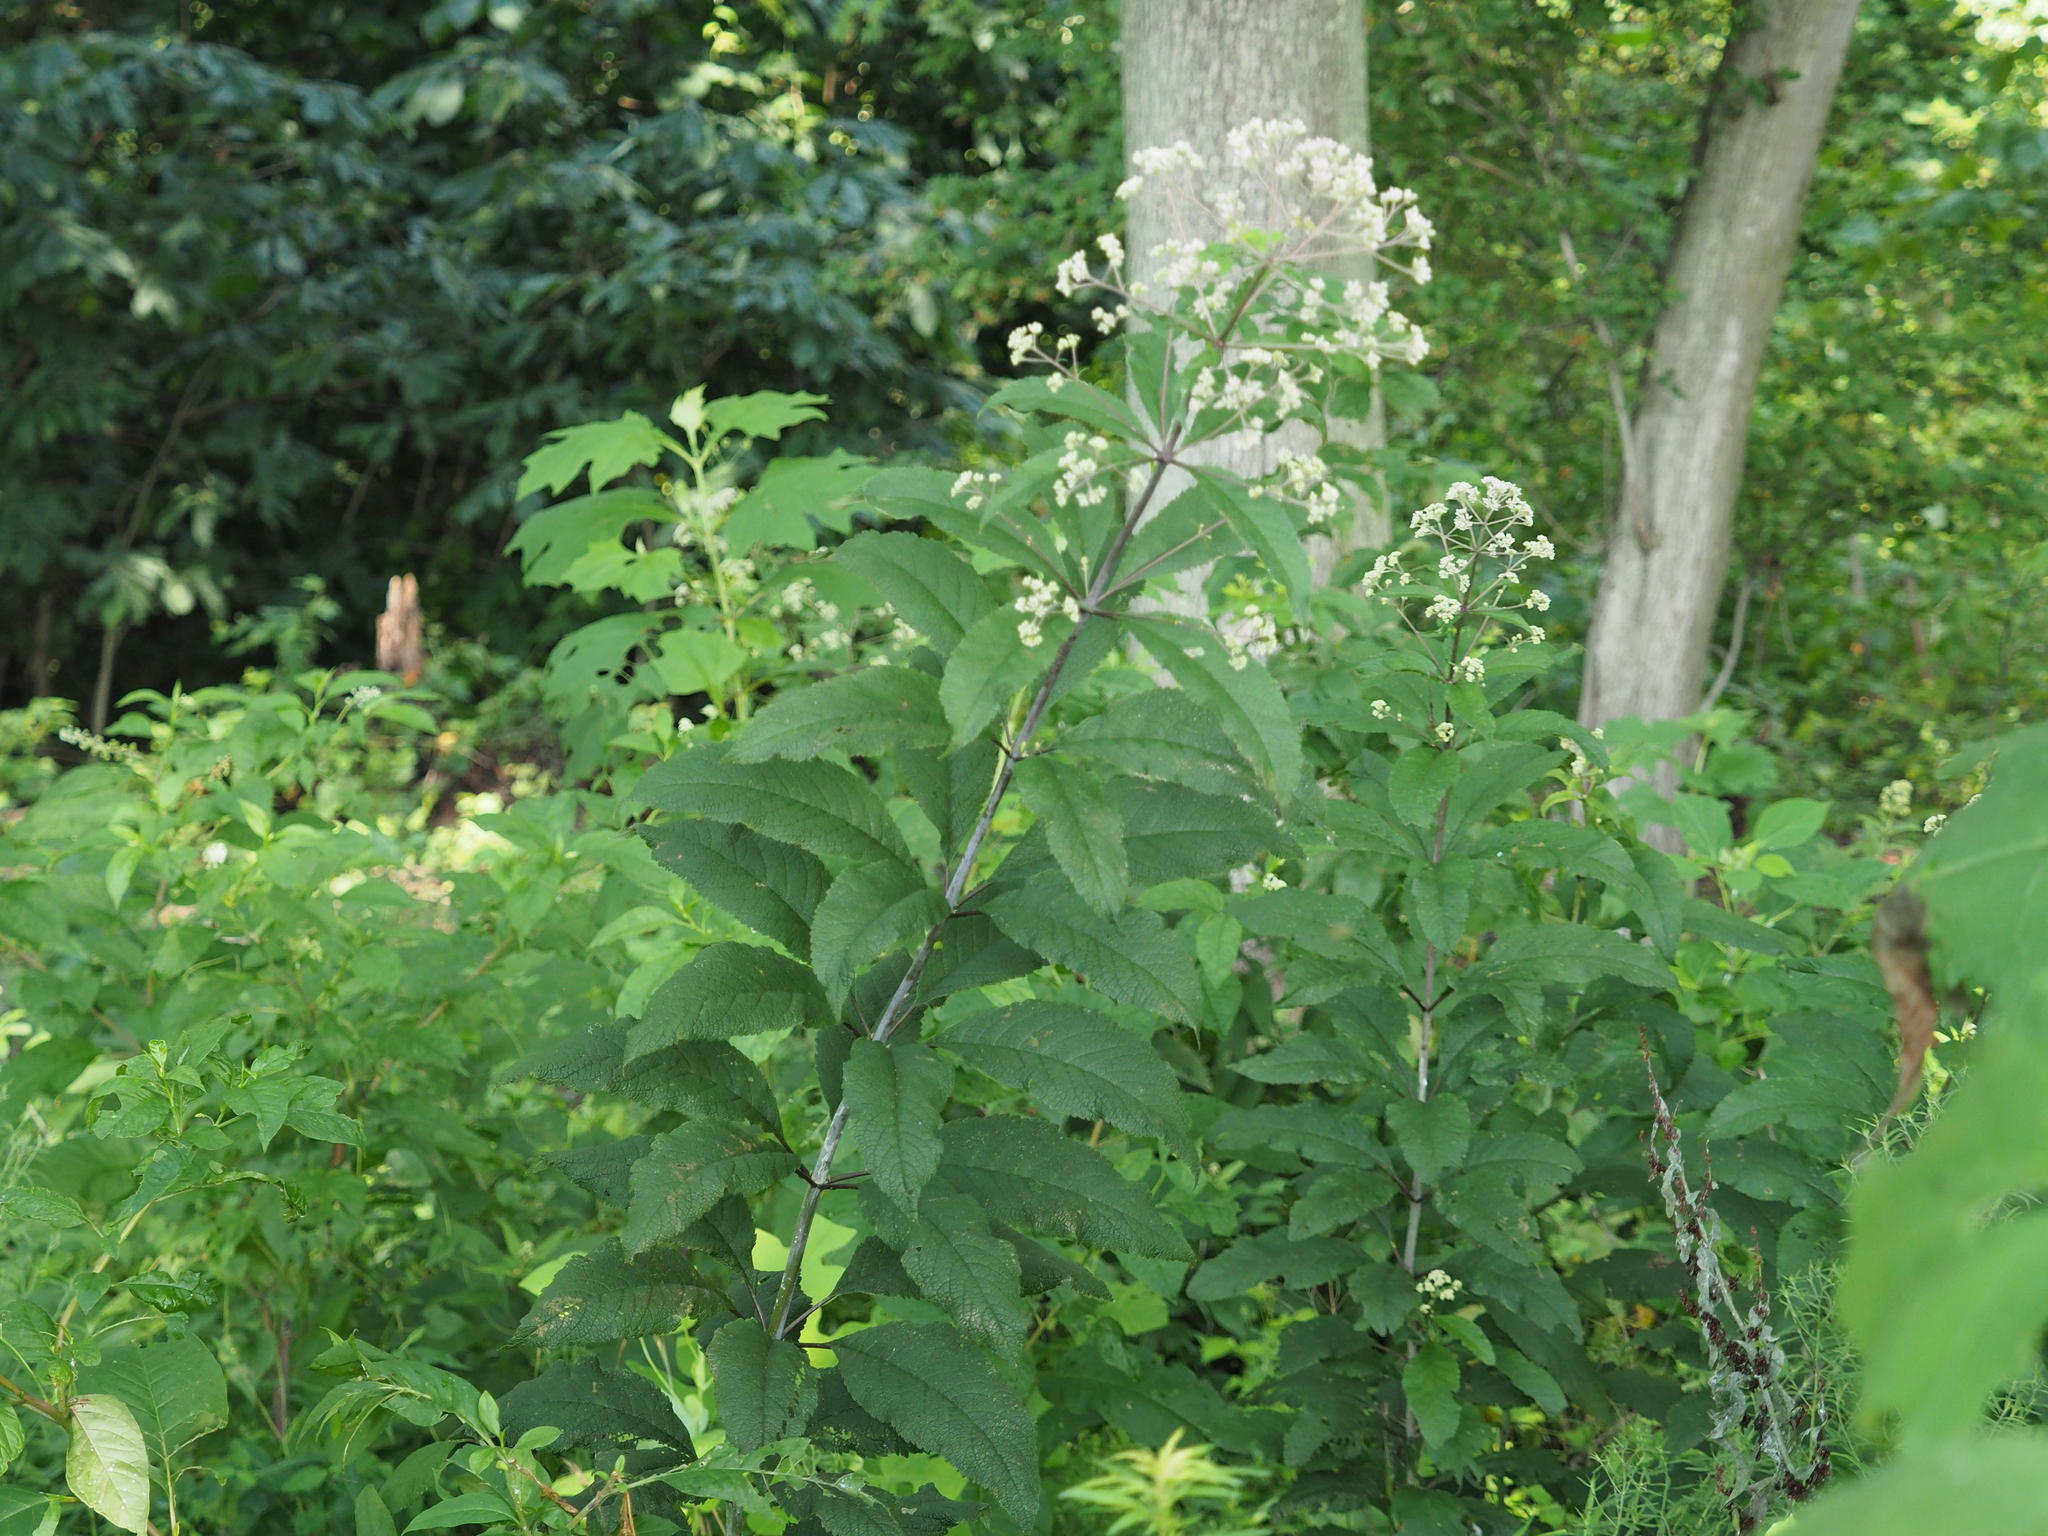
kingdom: Plantae
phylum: Tracheophyta
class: Magnoliopsida
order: Asterales
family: Asteraceae
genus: Eutrochium
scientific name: Eutrochium fistulosum
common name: Trumpetweed
